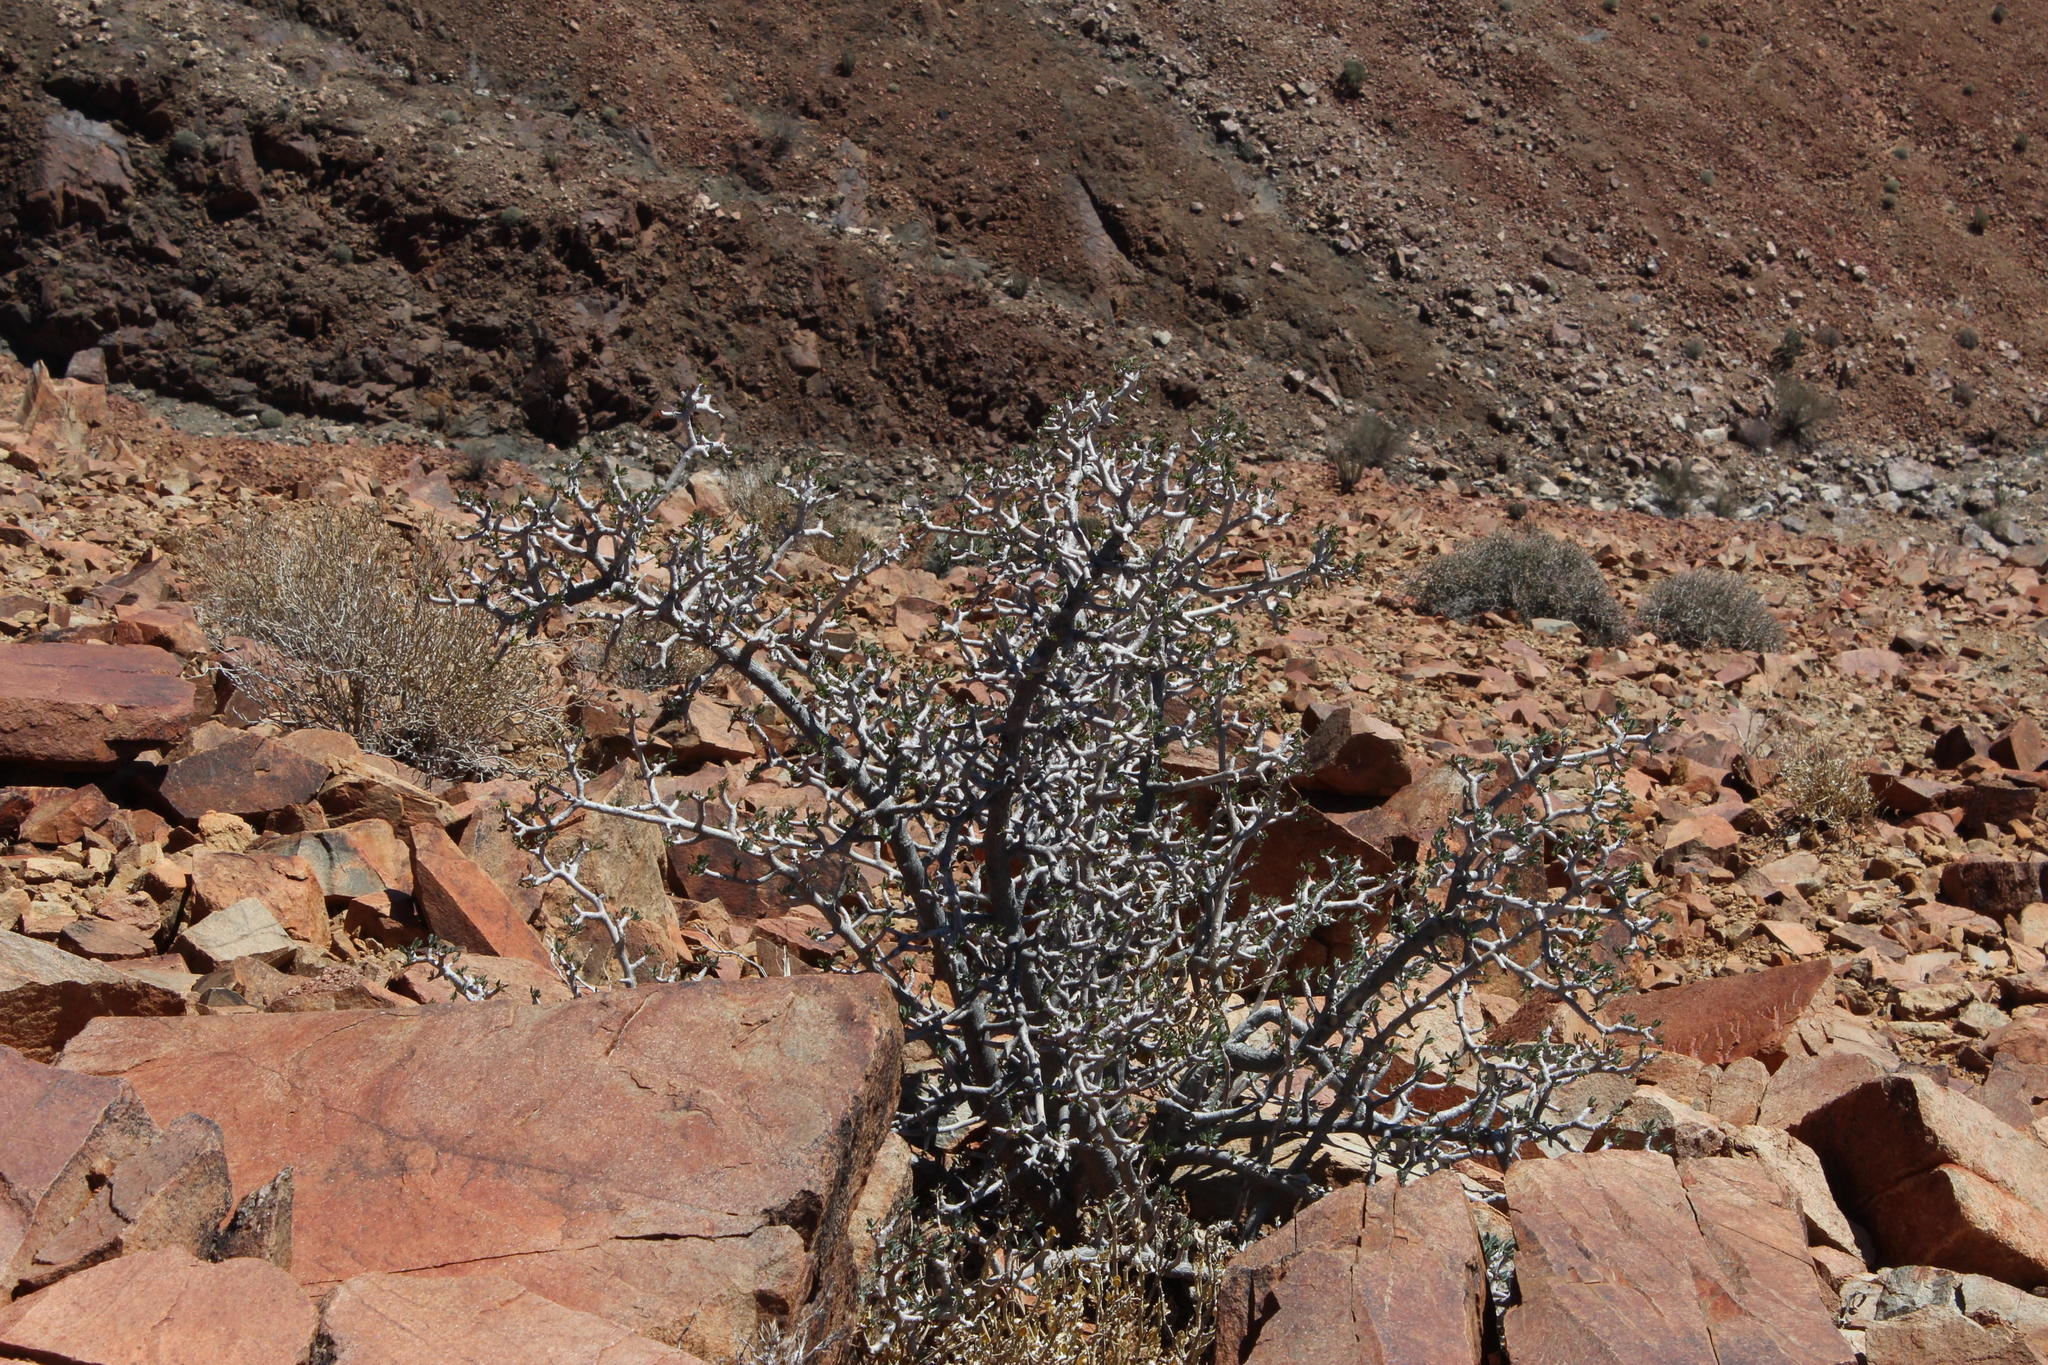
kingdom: Plantae
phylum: Tracheophyta
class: Magnoliopsida
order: Asterales
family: Asteraceae
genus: Othonna
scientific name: Othonna lasiocarpa
